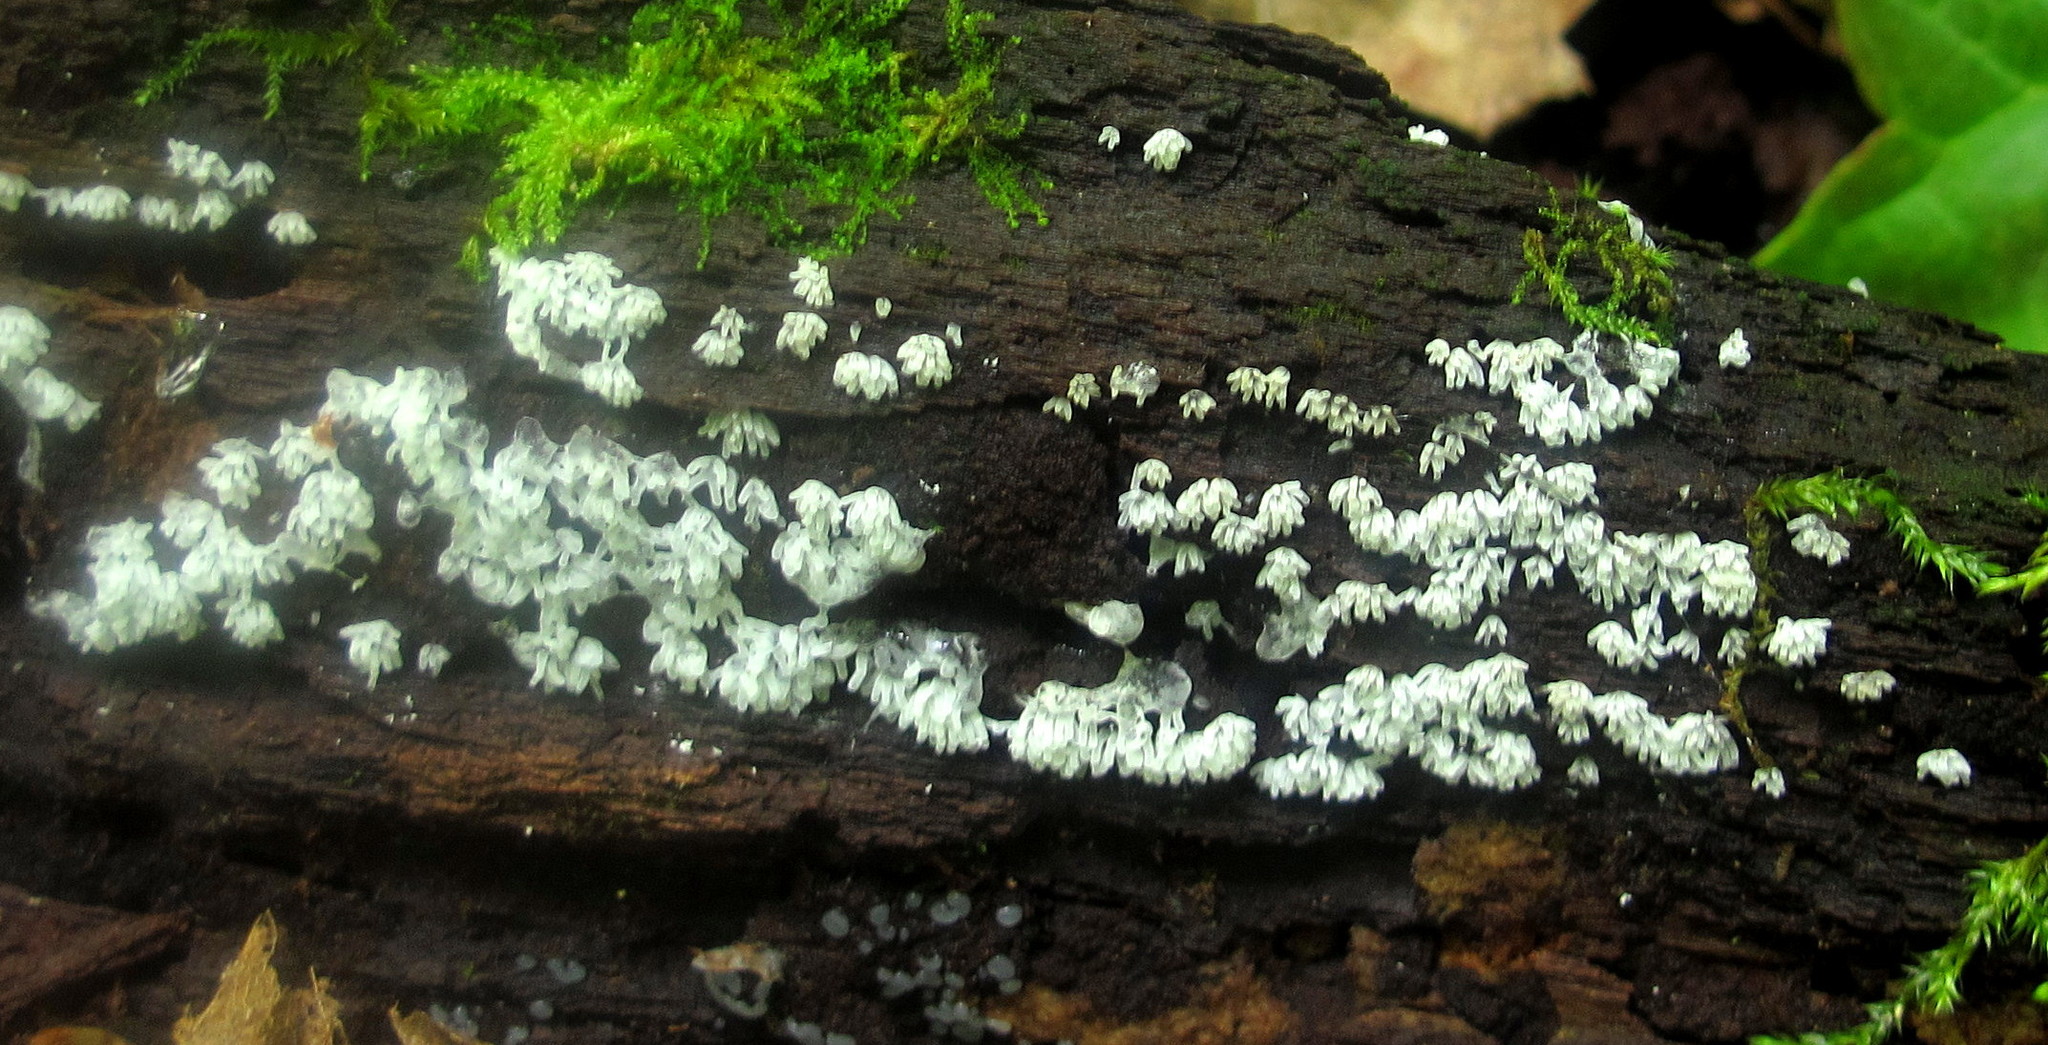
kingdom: Protozoa
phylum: Mycetozoa
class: Protosteliomycetes
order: Ceratiomyxales
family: Ceratiomyxaceae
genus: Ceratiomyxa
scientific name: Ceratiomyxa fruticulosa
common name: Honeycomb coral slime mold
